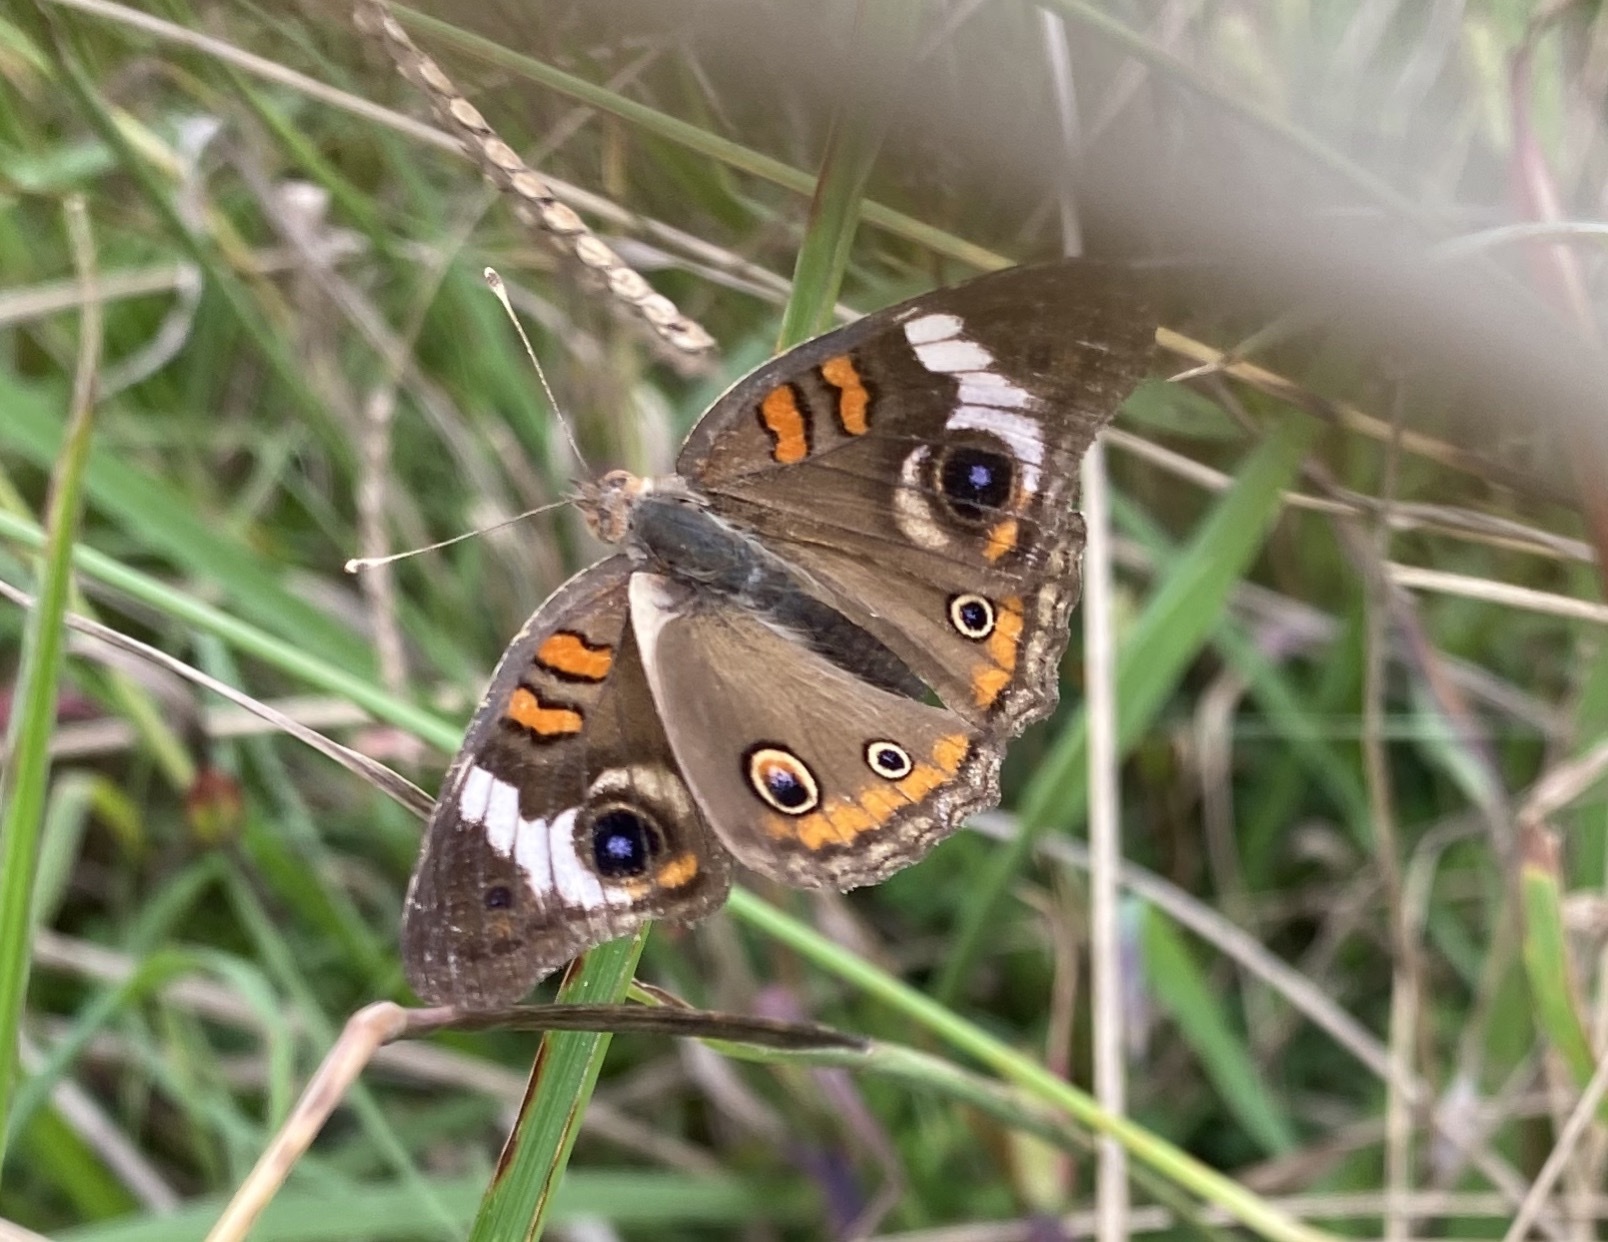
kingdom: Animalia
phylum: Arthropoda
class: Insecta
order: Lepidoptera
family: Nymphalidae
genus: Junonia
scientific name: Junonia coenia
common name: Common buckeye
